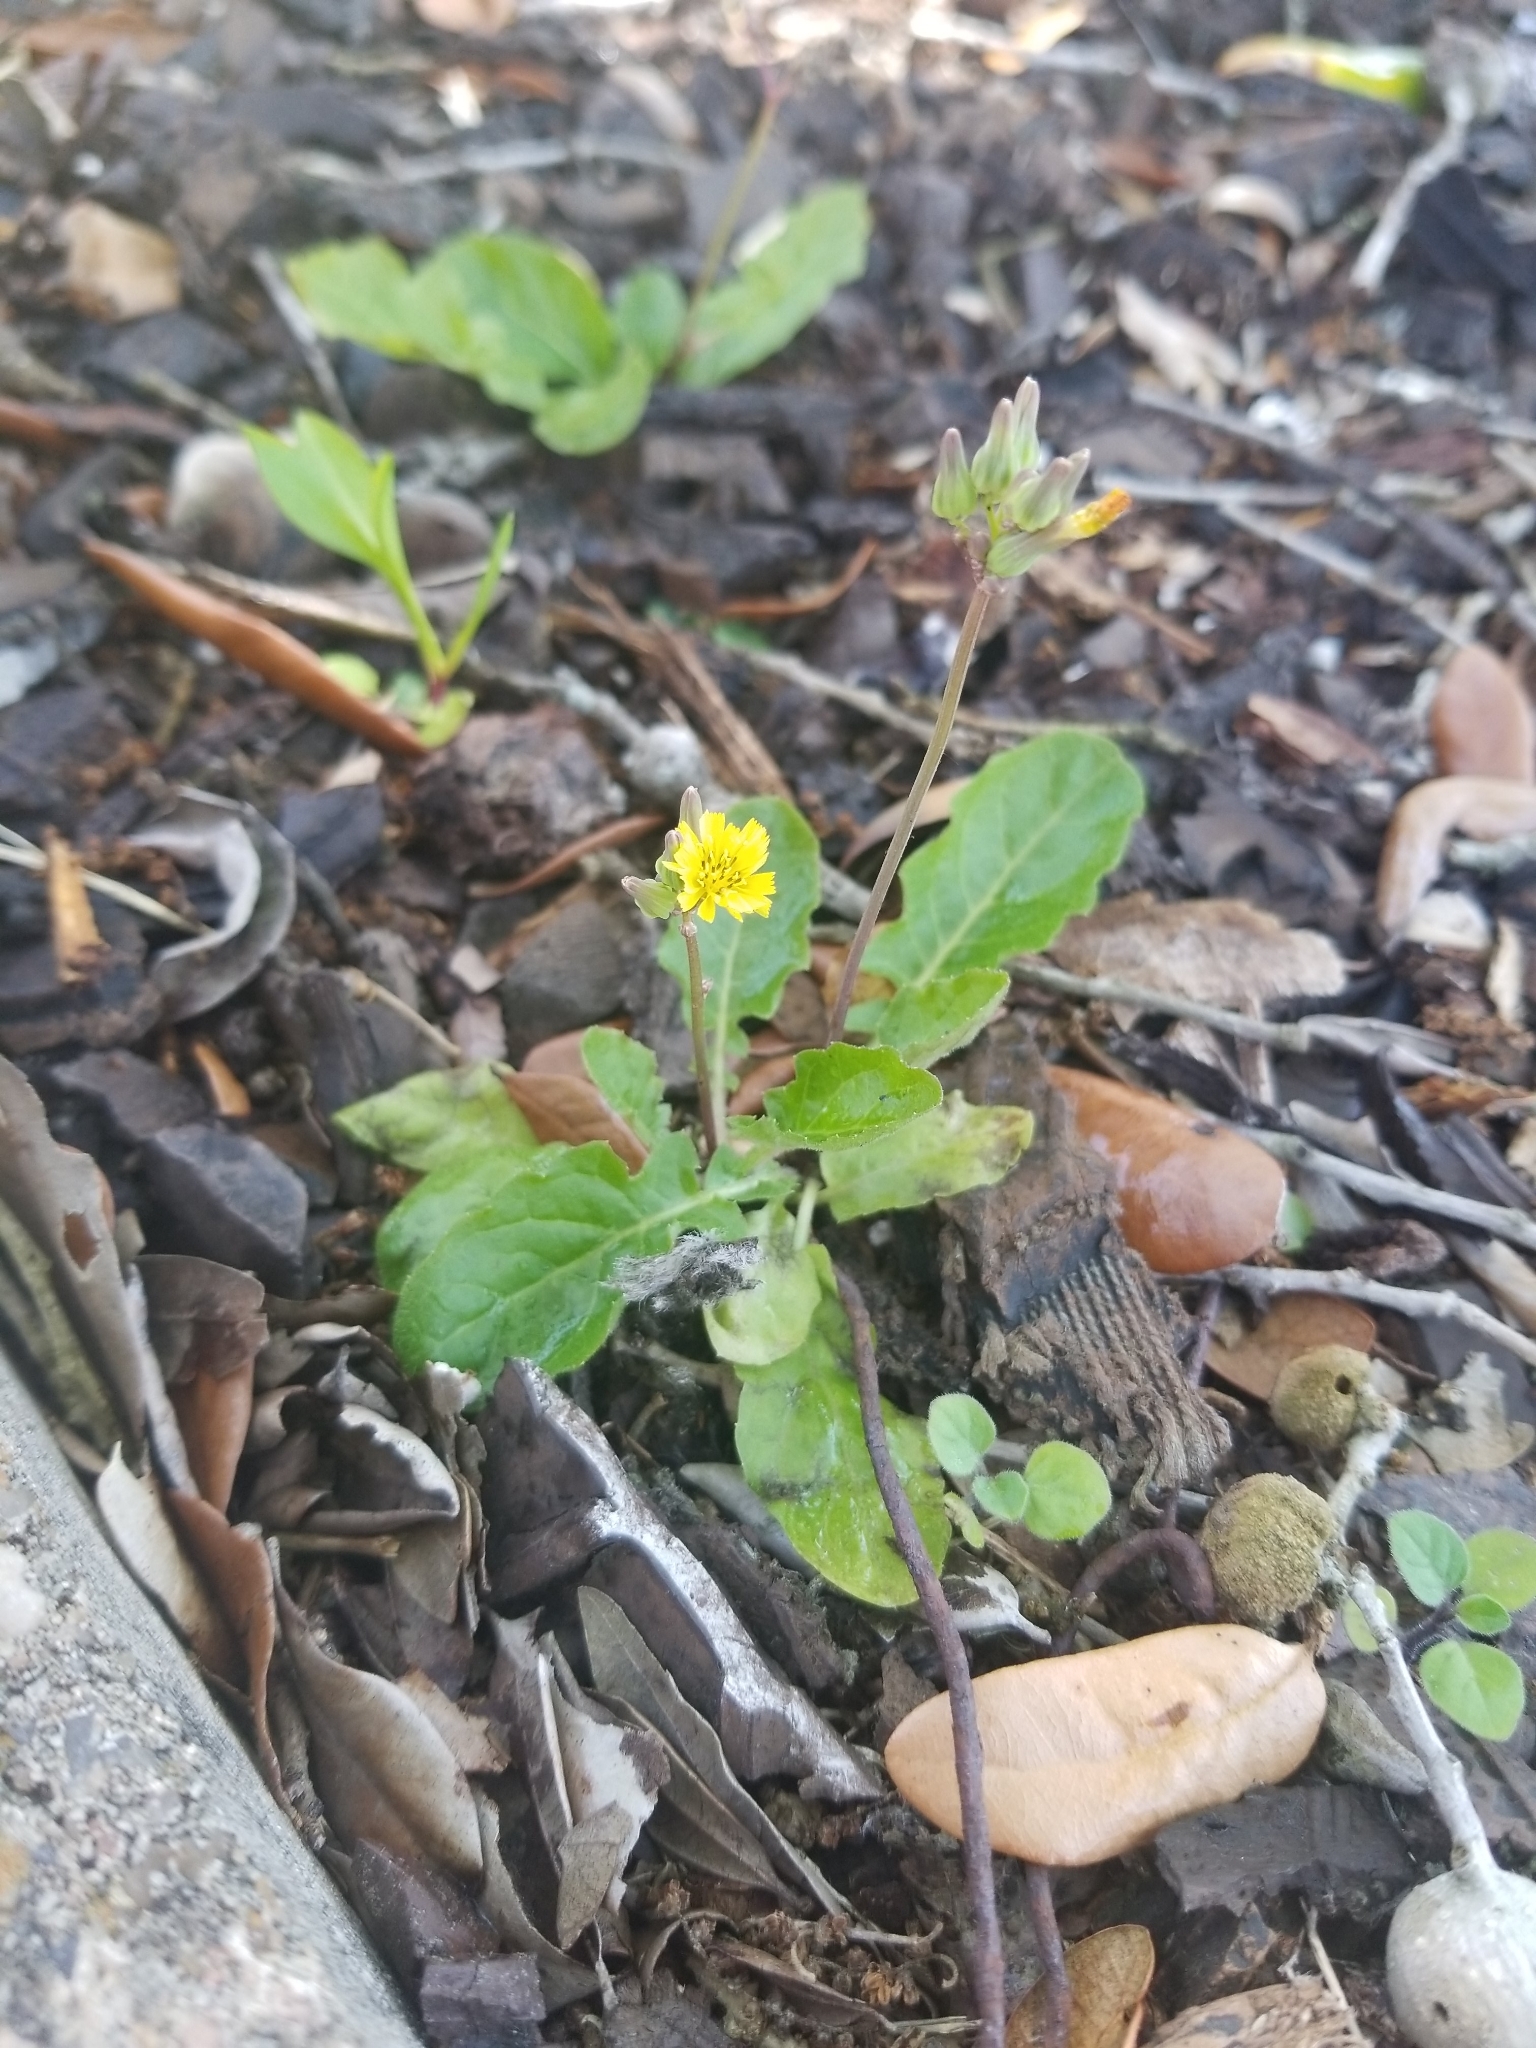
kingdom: Plantae
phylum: Tracheophyta
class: Magnoliopsida
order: Asterales
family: Asteraceae
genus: Youngia
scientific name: Youngia japonica
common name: Oriental false hawksbeard
